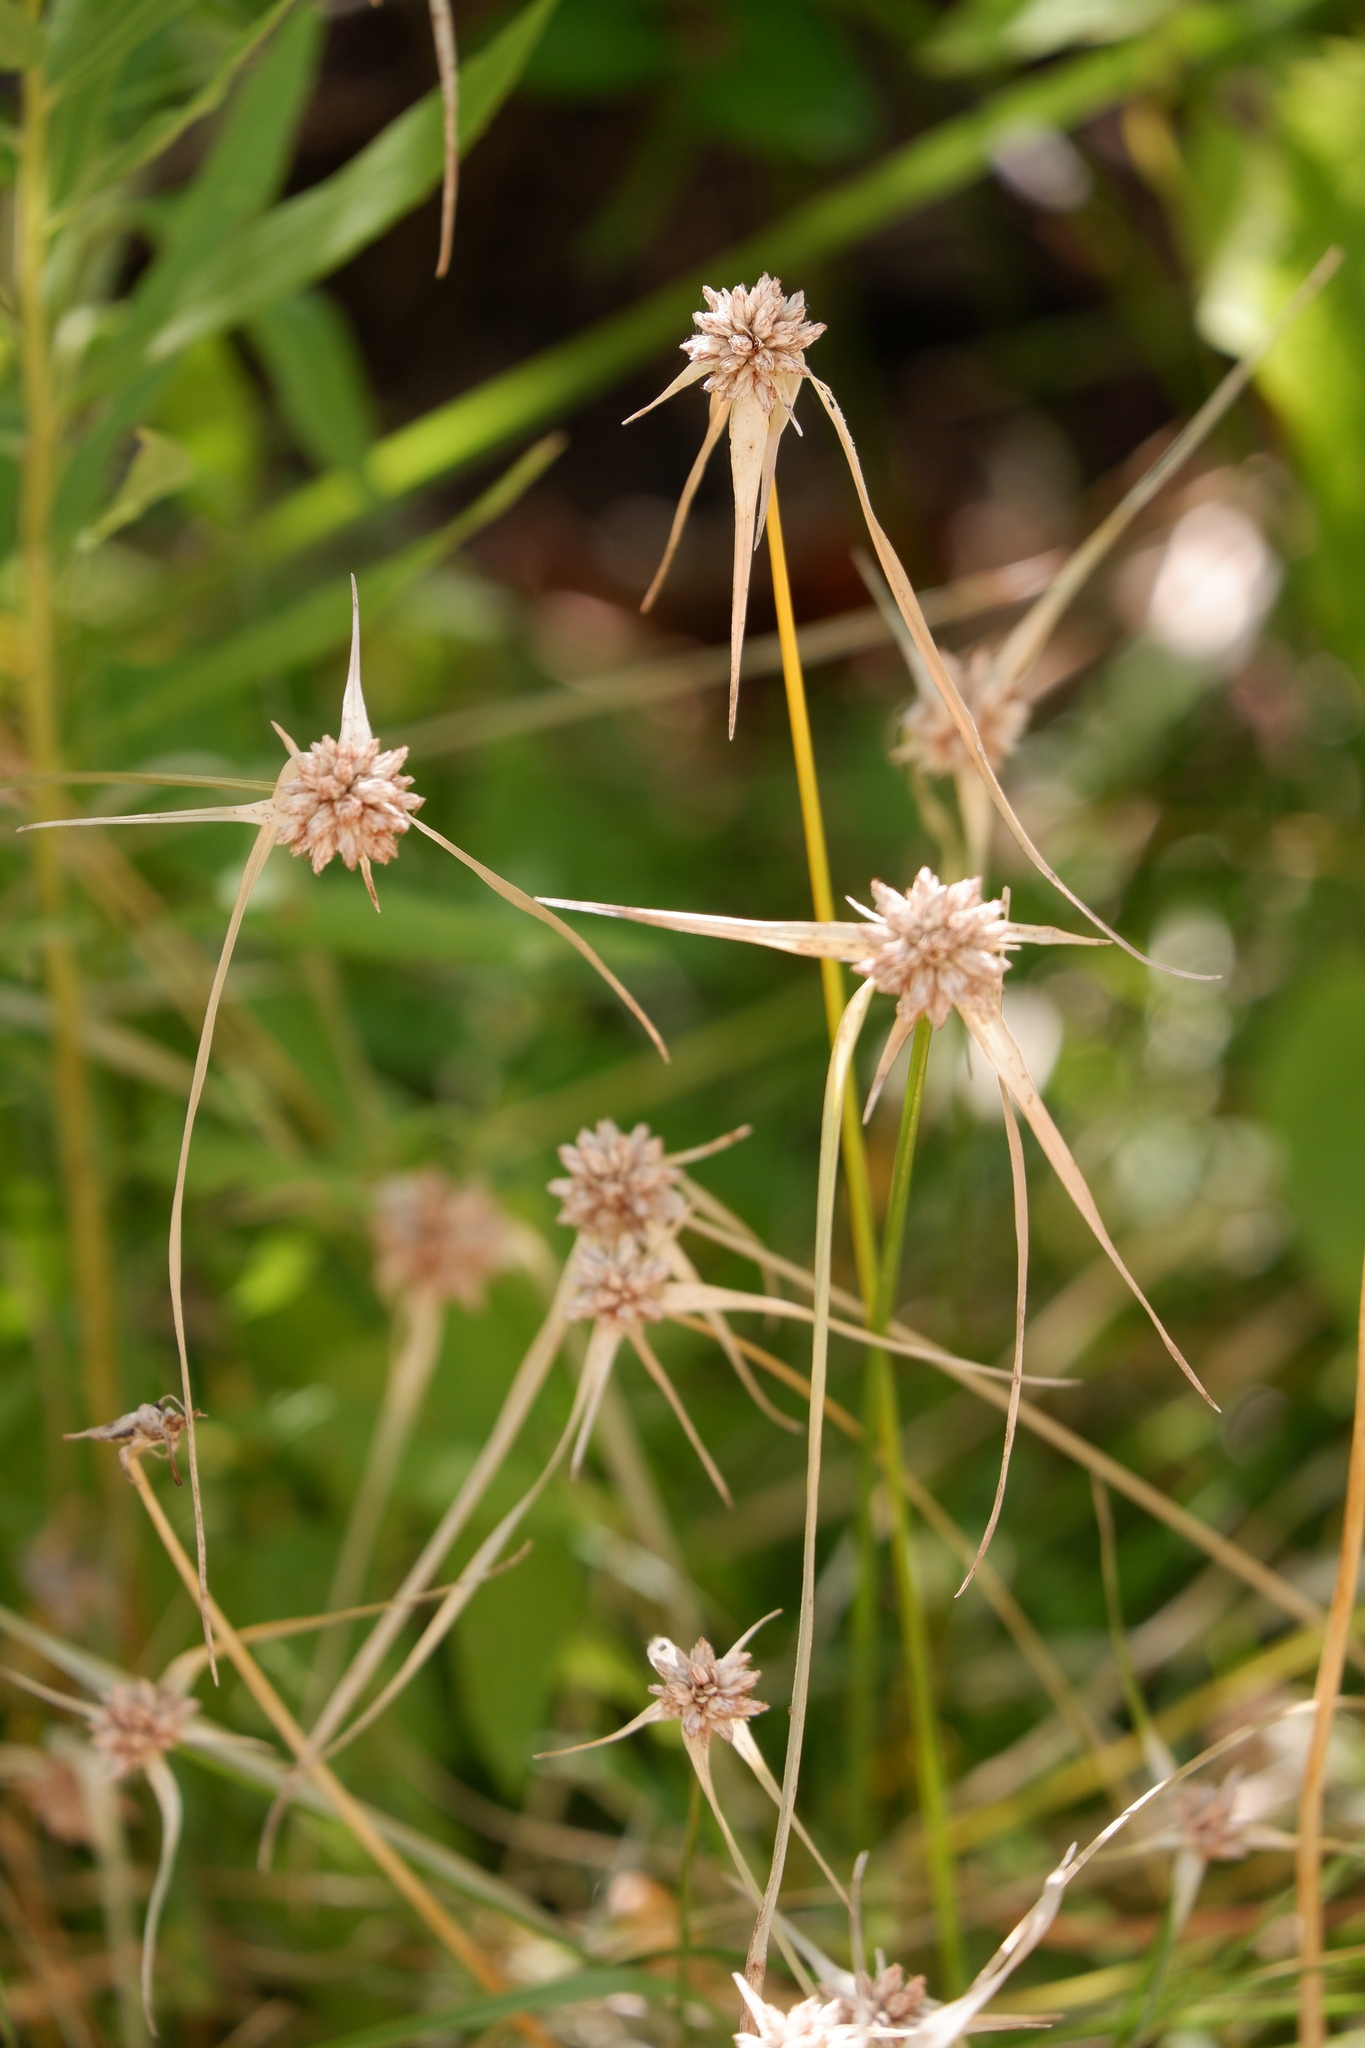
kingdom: Plantae
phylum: Tracheophyta
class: Liliopsida
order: Poales
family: Cyperaceae
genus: Rhynchospora
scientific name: Rhynchospora colorata
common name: Star sedge
